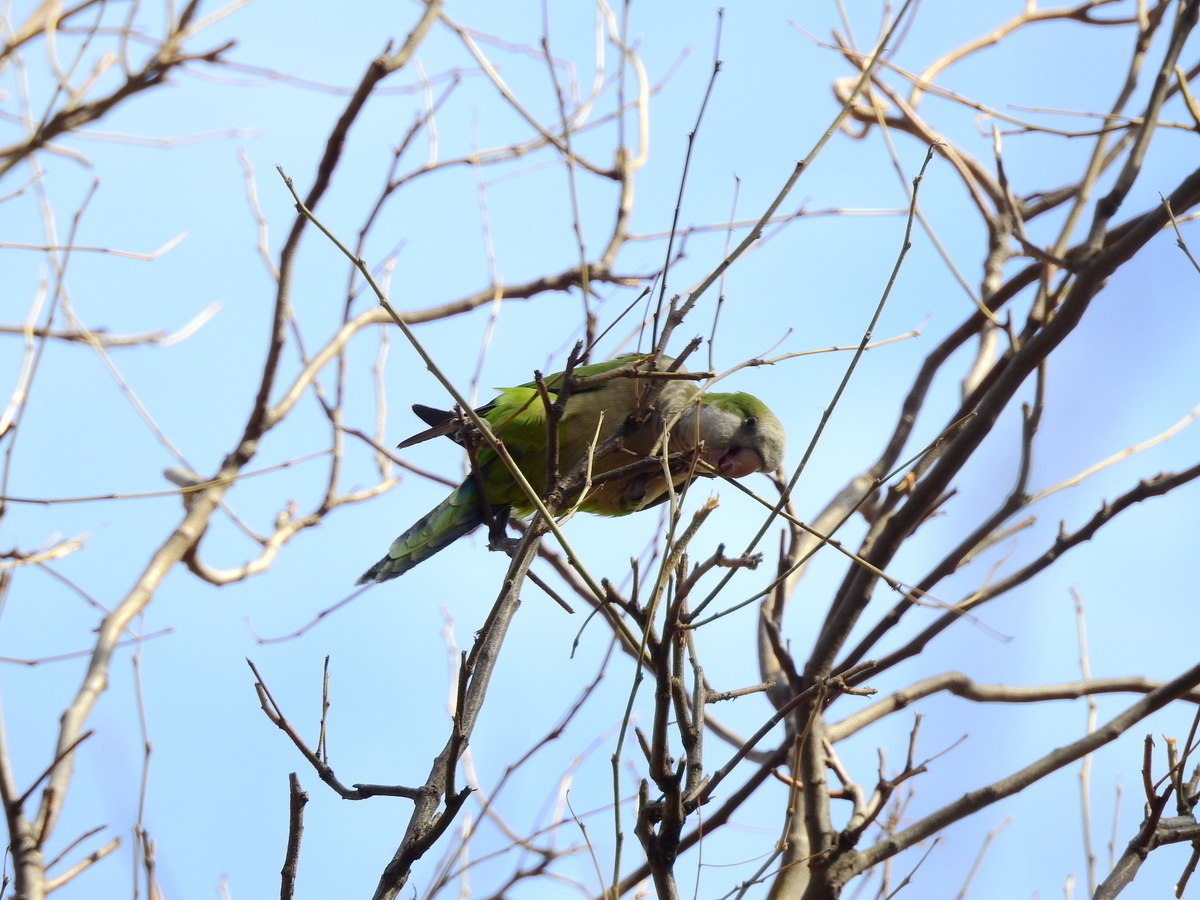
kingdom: Animalia
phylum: Chordata
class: Aves
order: Psittaciformes
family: Psittacidae
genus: Myiopsitta
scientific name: Myiopsitta monachus
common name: Monk parakeet
